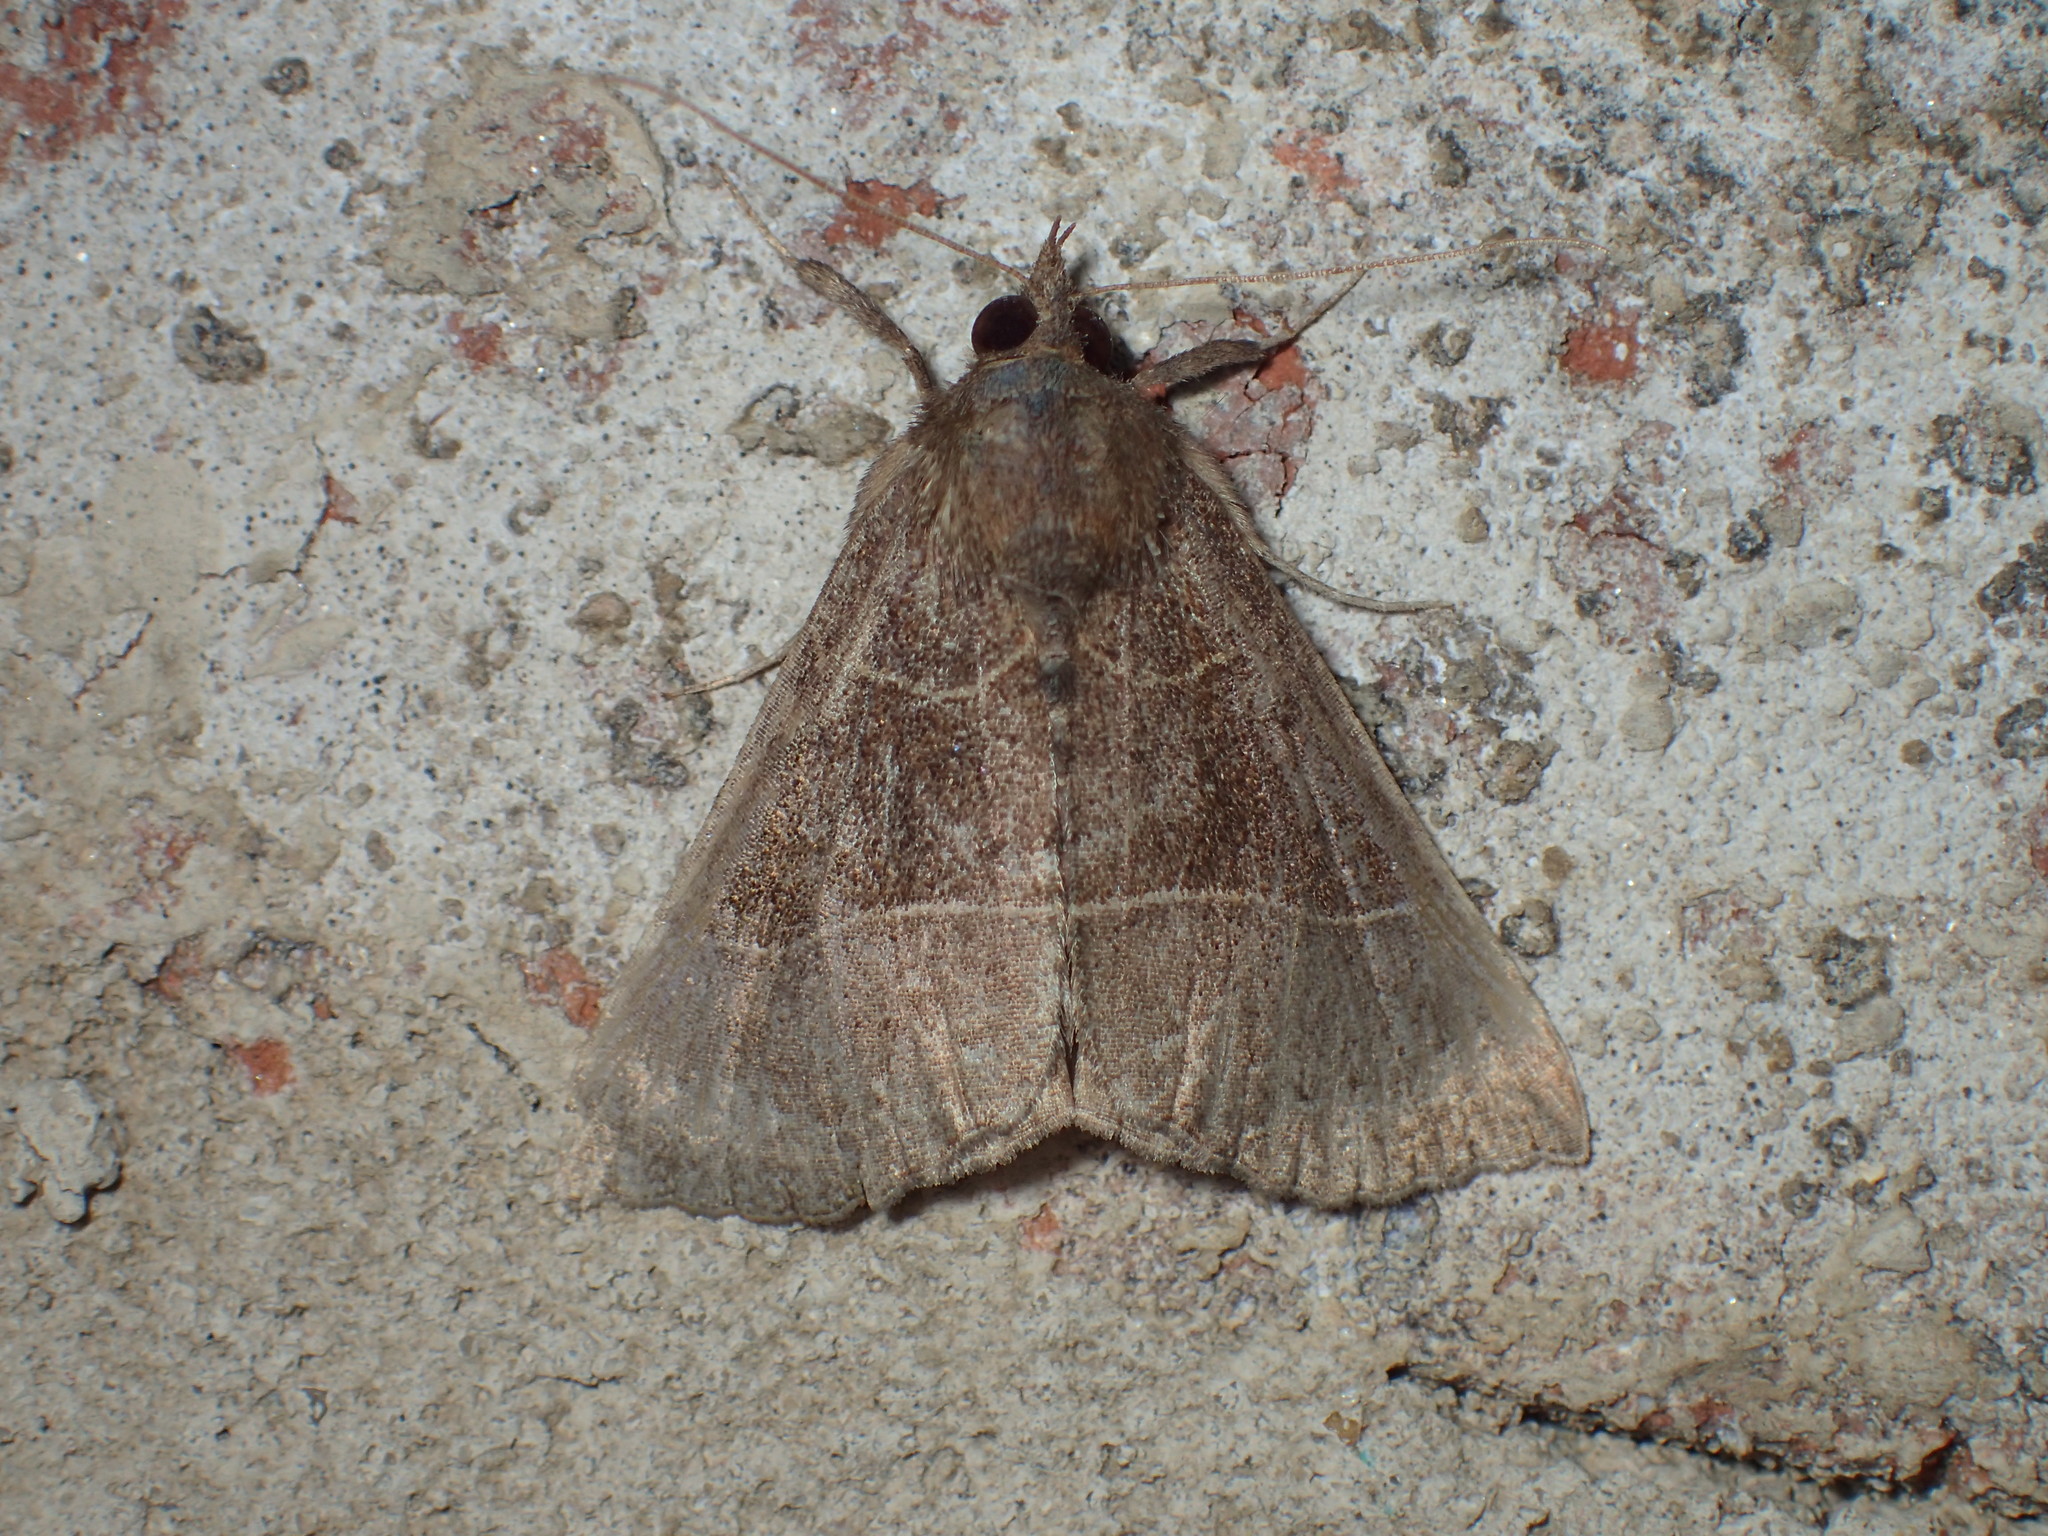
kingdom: Animalia
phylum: Arthropoda
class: Insecta
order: Lepidoptera
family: Erebidae
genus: Hypena
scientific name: Hypena deceptalis
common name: Deceptive snout
